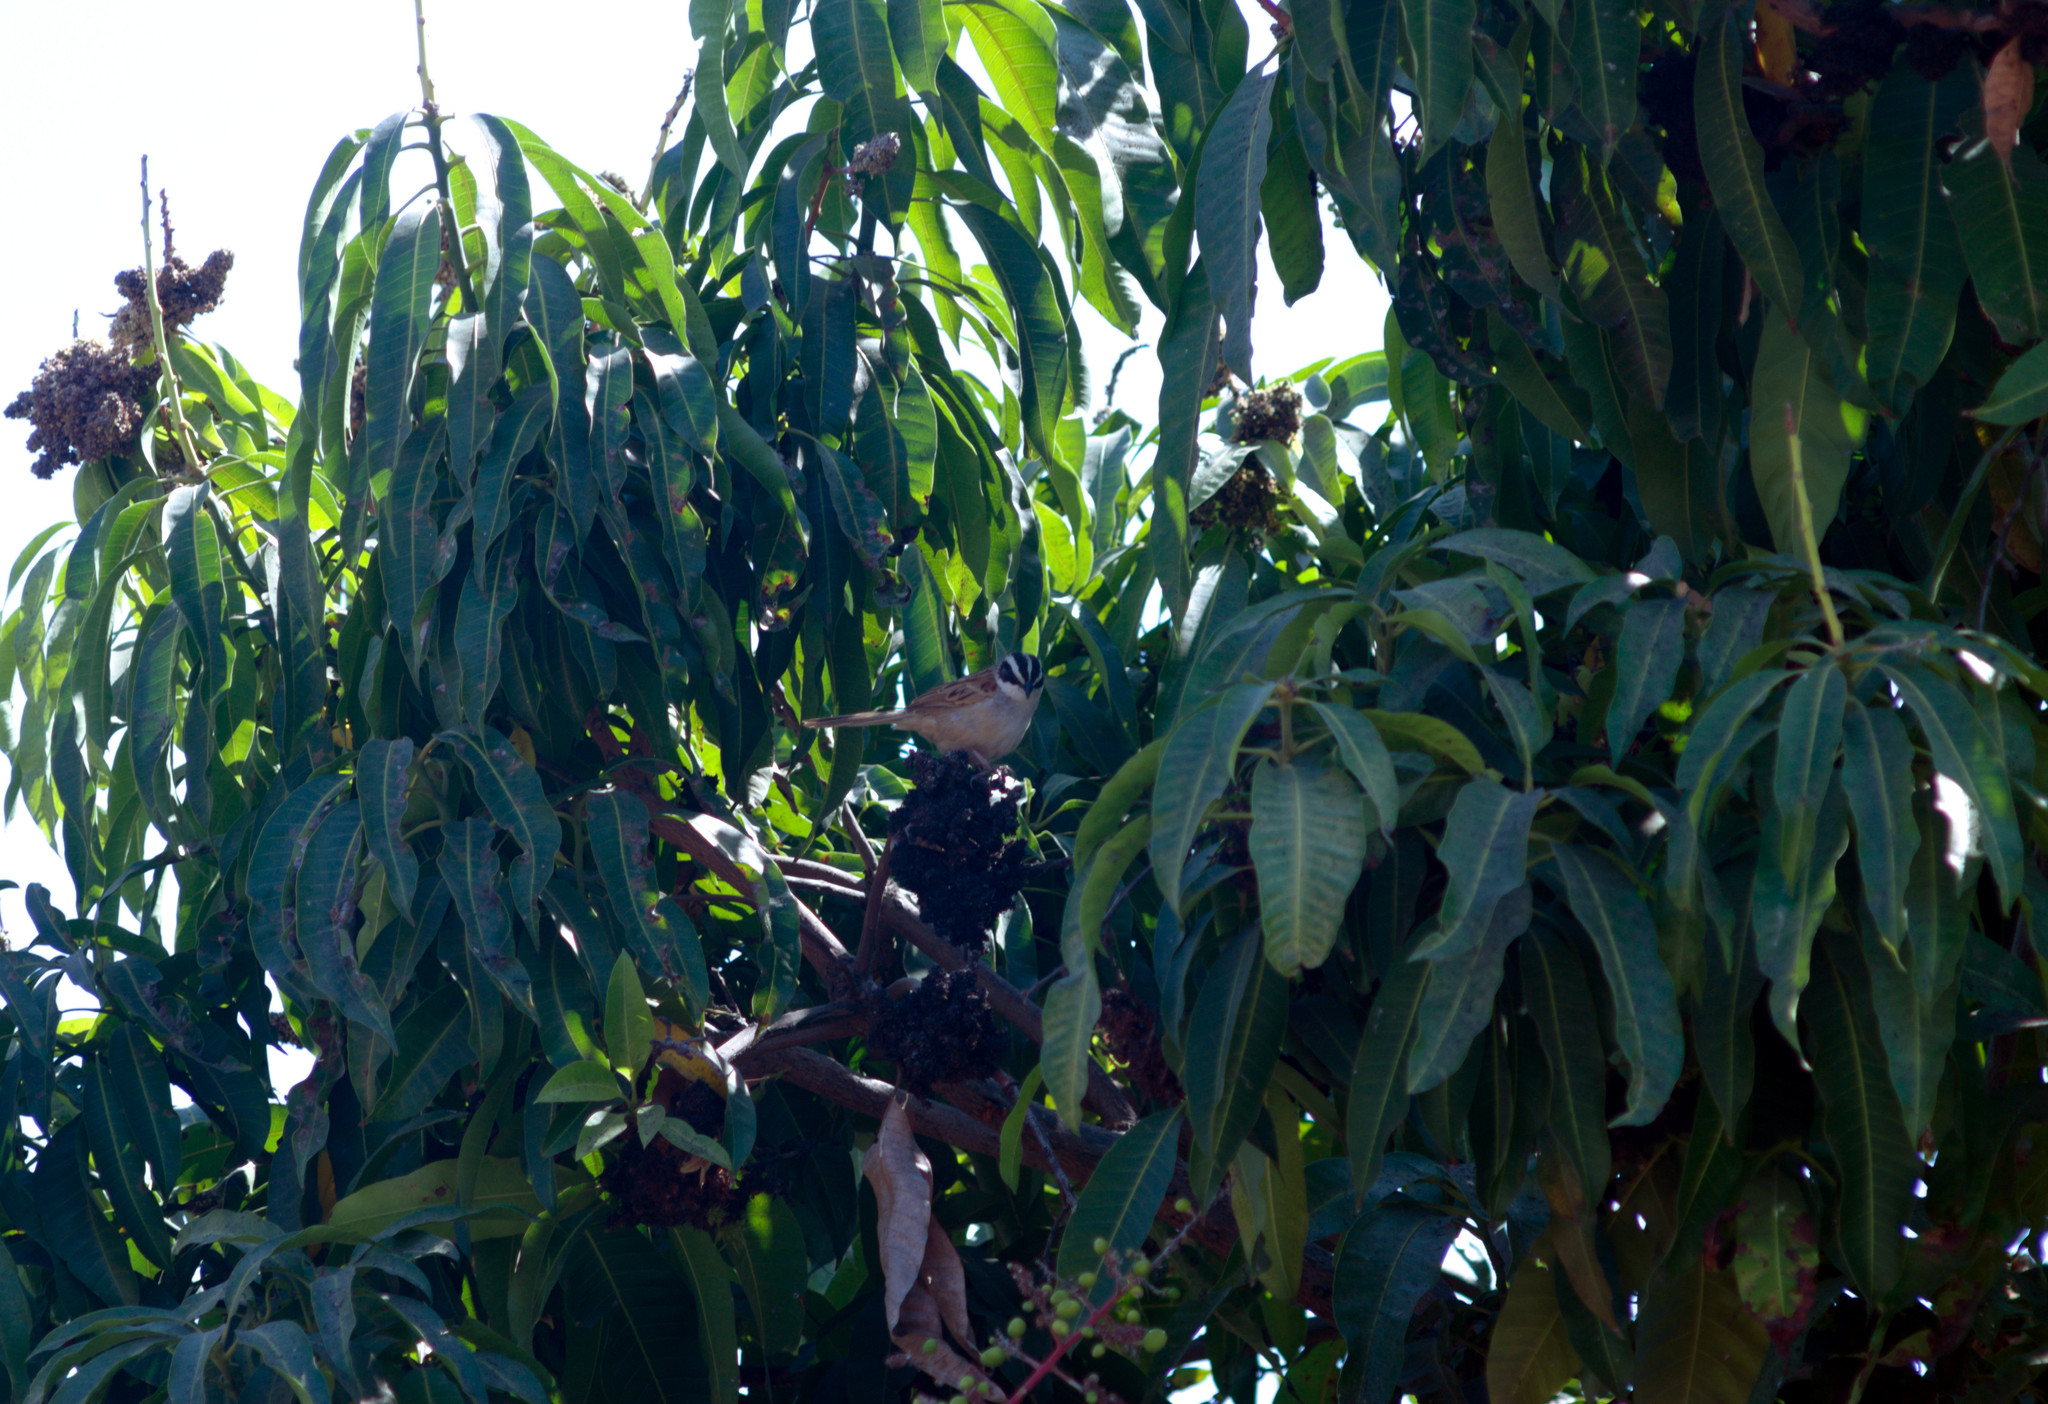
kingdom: Animalia
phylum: Chordata
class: Aves
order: Passeriformes
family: Passerellidae
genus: Peucaea
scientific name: Peucaea ruficauda
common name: Stripe-headed sparrow
